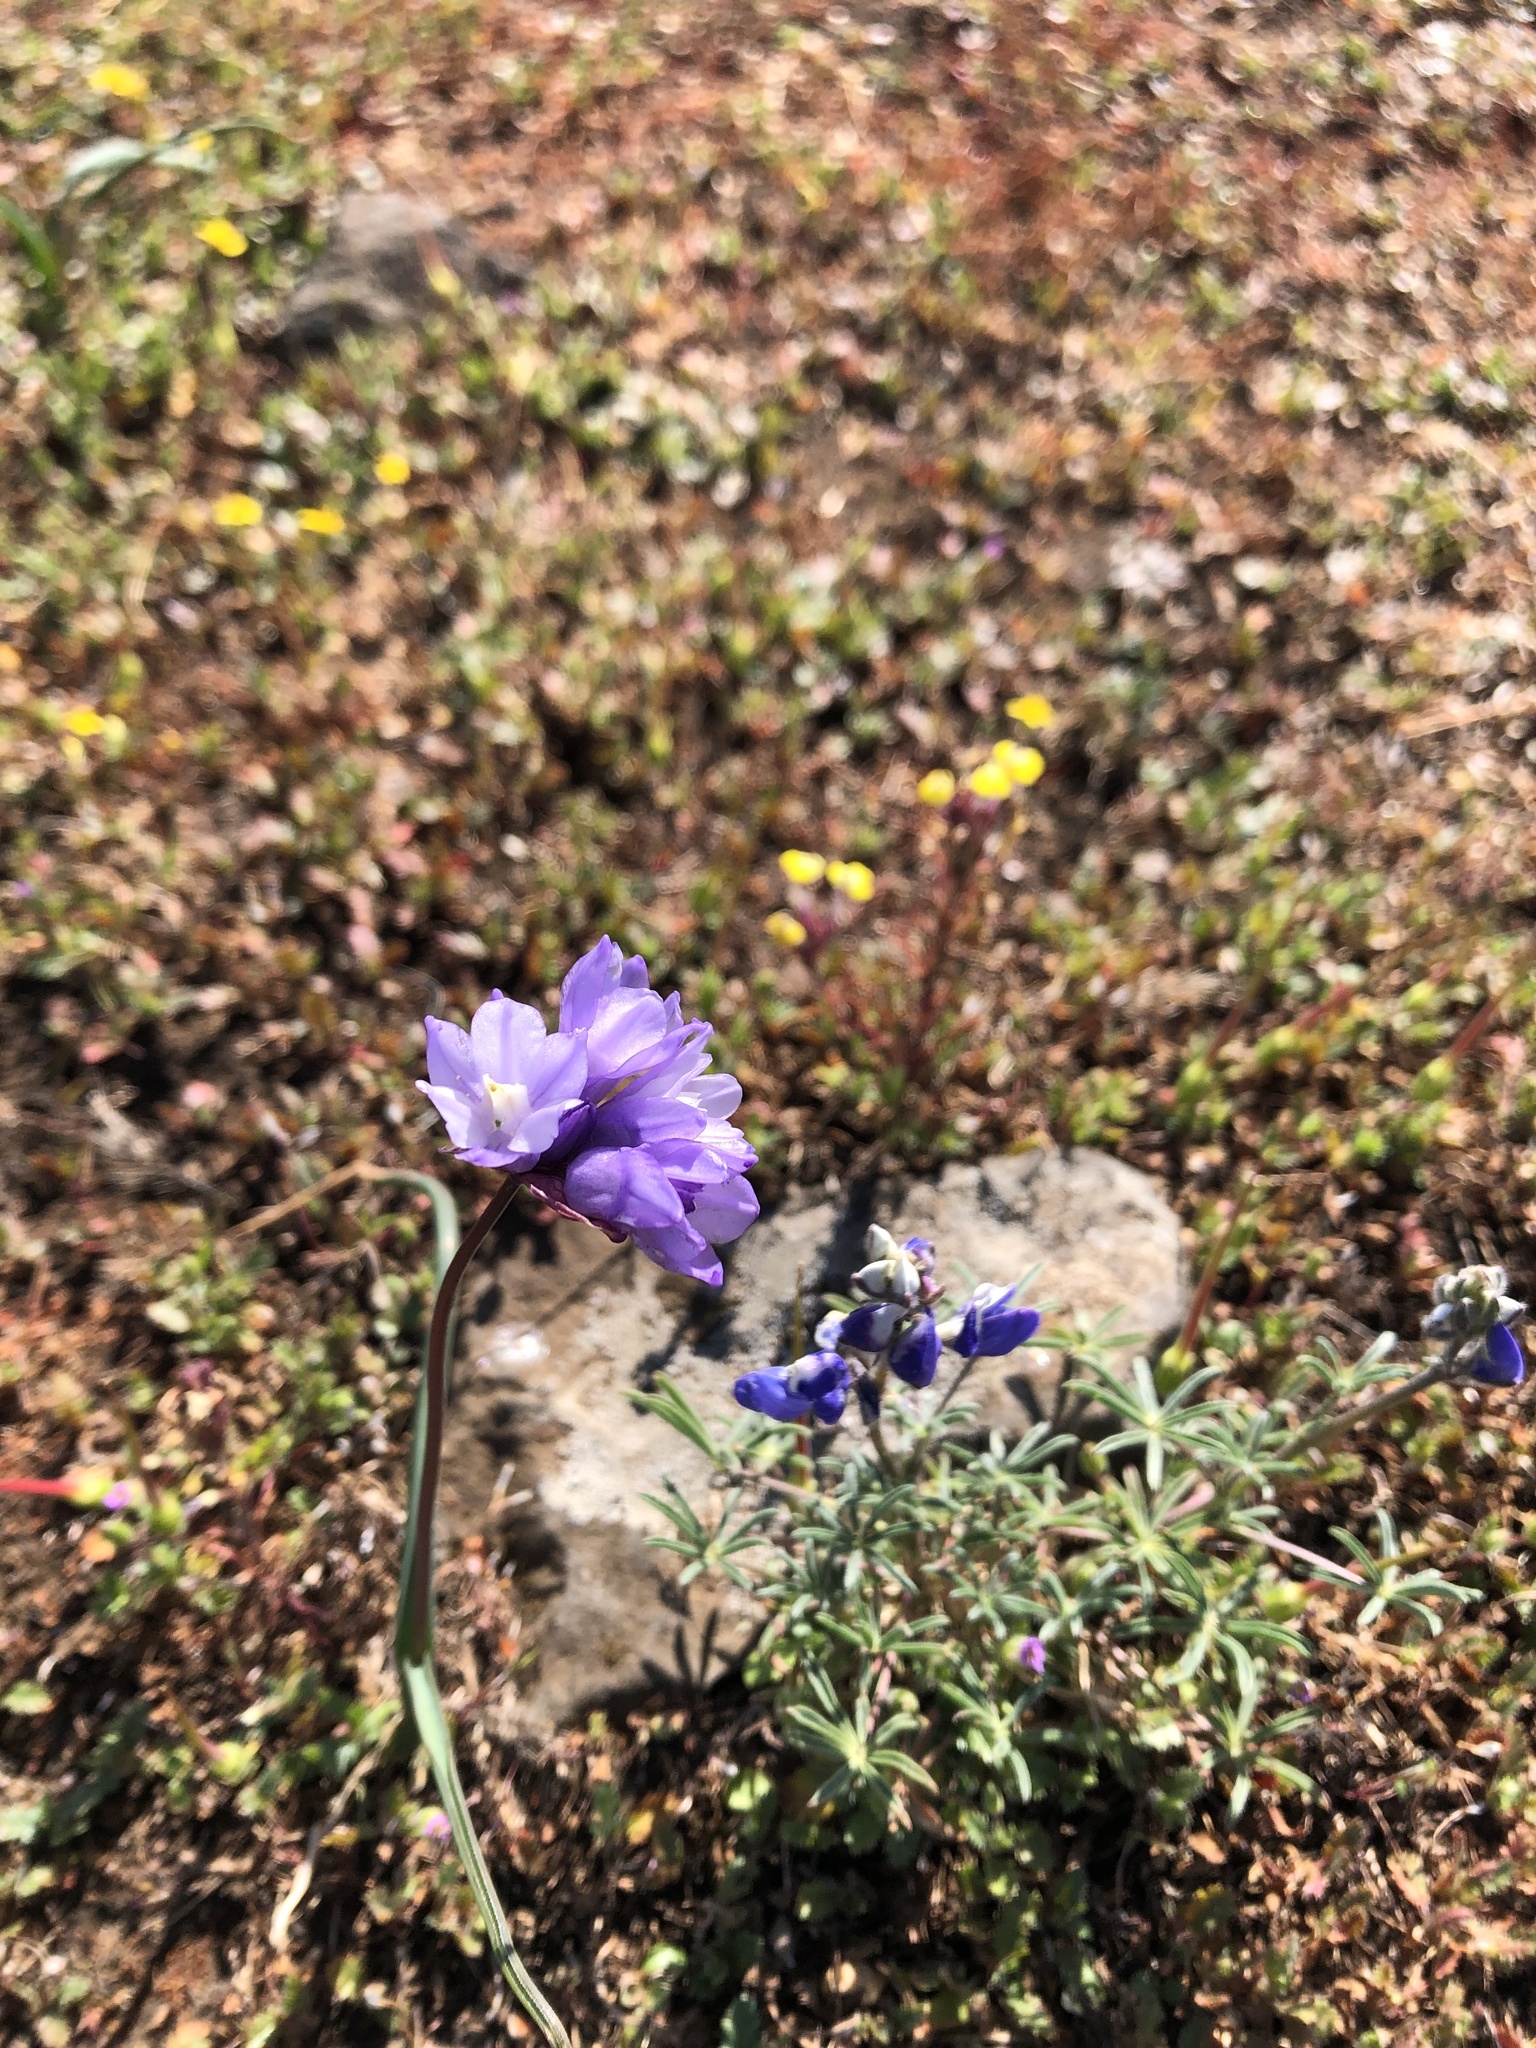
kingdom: Plantae
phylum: Tracheophyta
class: Liliopsida
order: Asparagales
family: Asparagaceae
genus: Dipterostemon
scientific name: Dipterostemon capitatus
